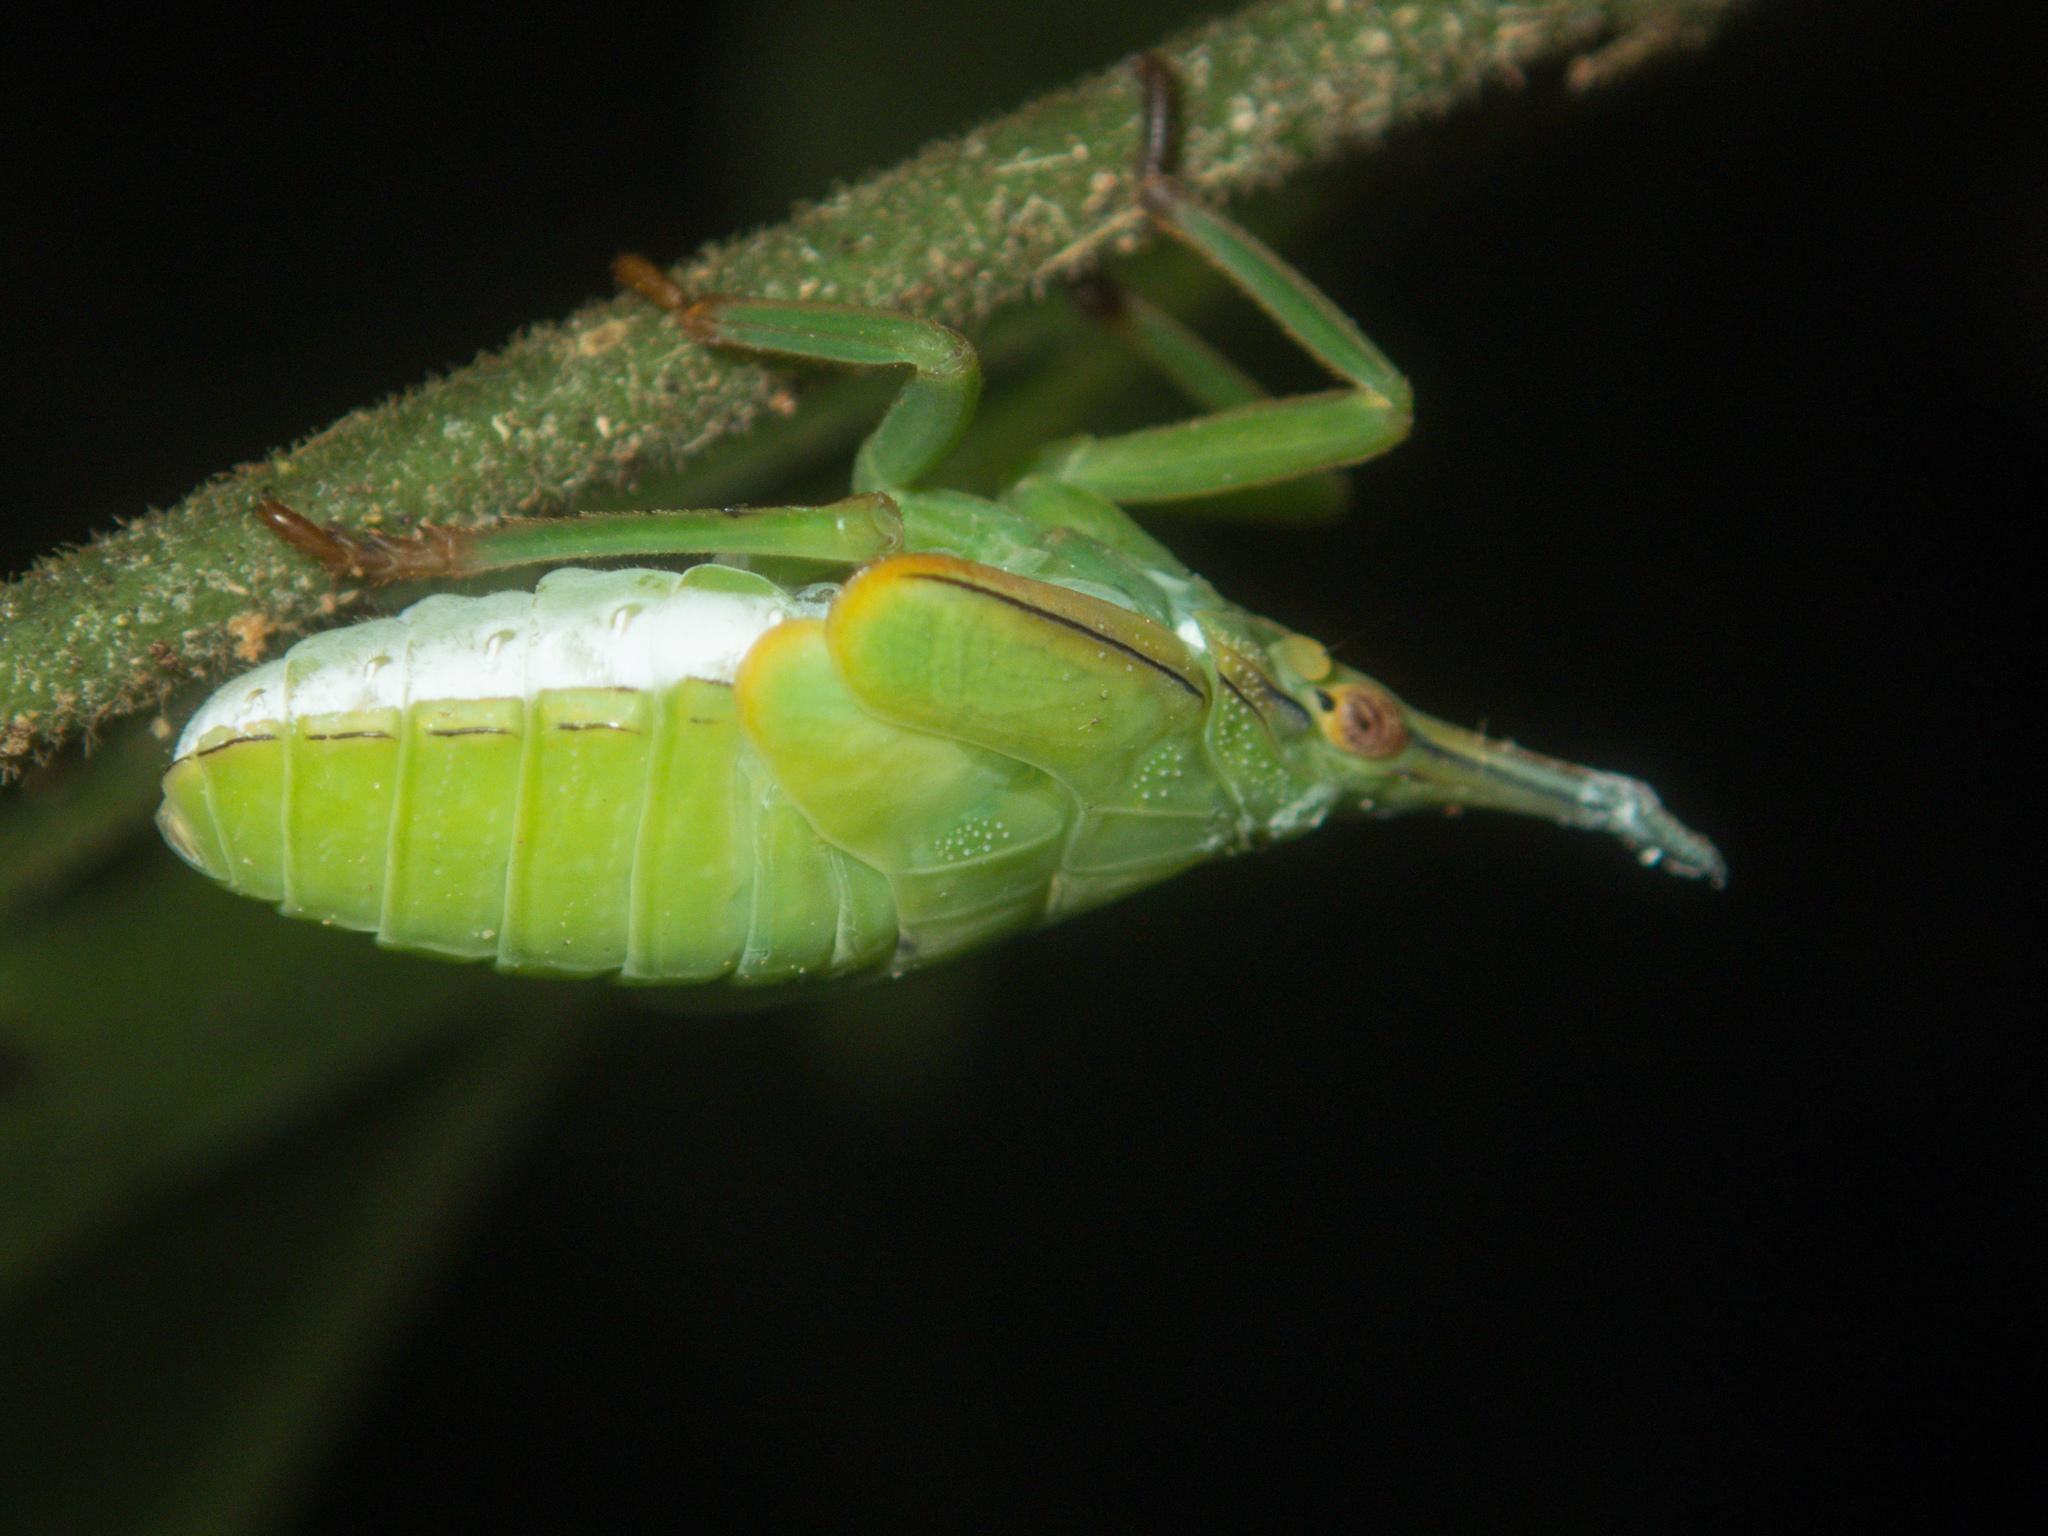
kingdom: Animalia
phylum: Arthropoda
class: Insecta
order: Hemiptera
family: Fulgoridae
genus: Pyrops
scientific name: Pyrops itoi
